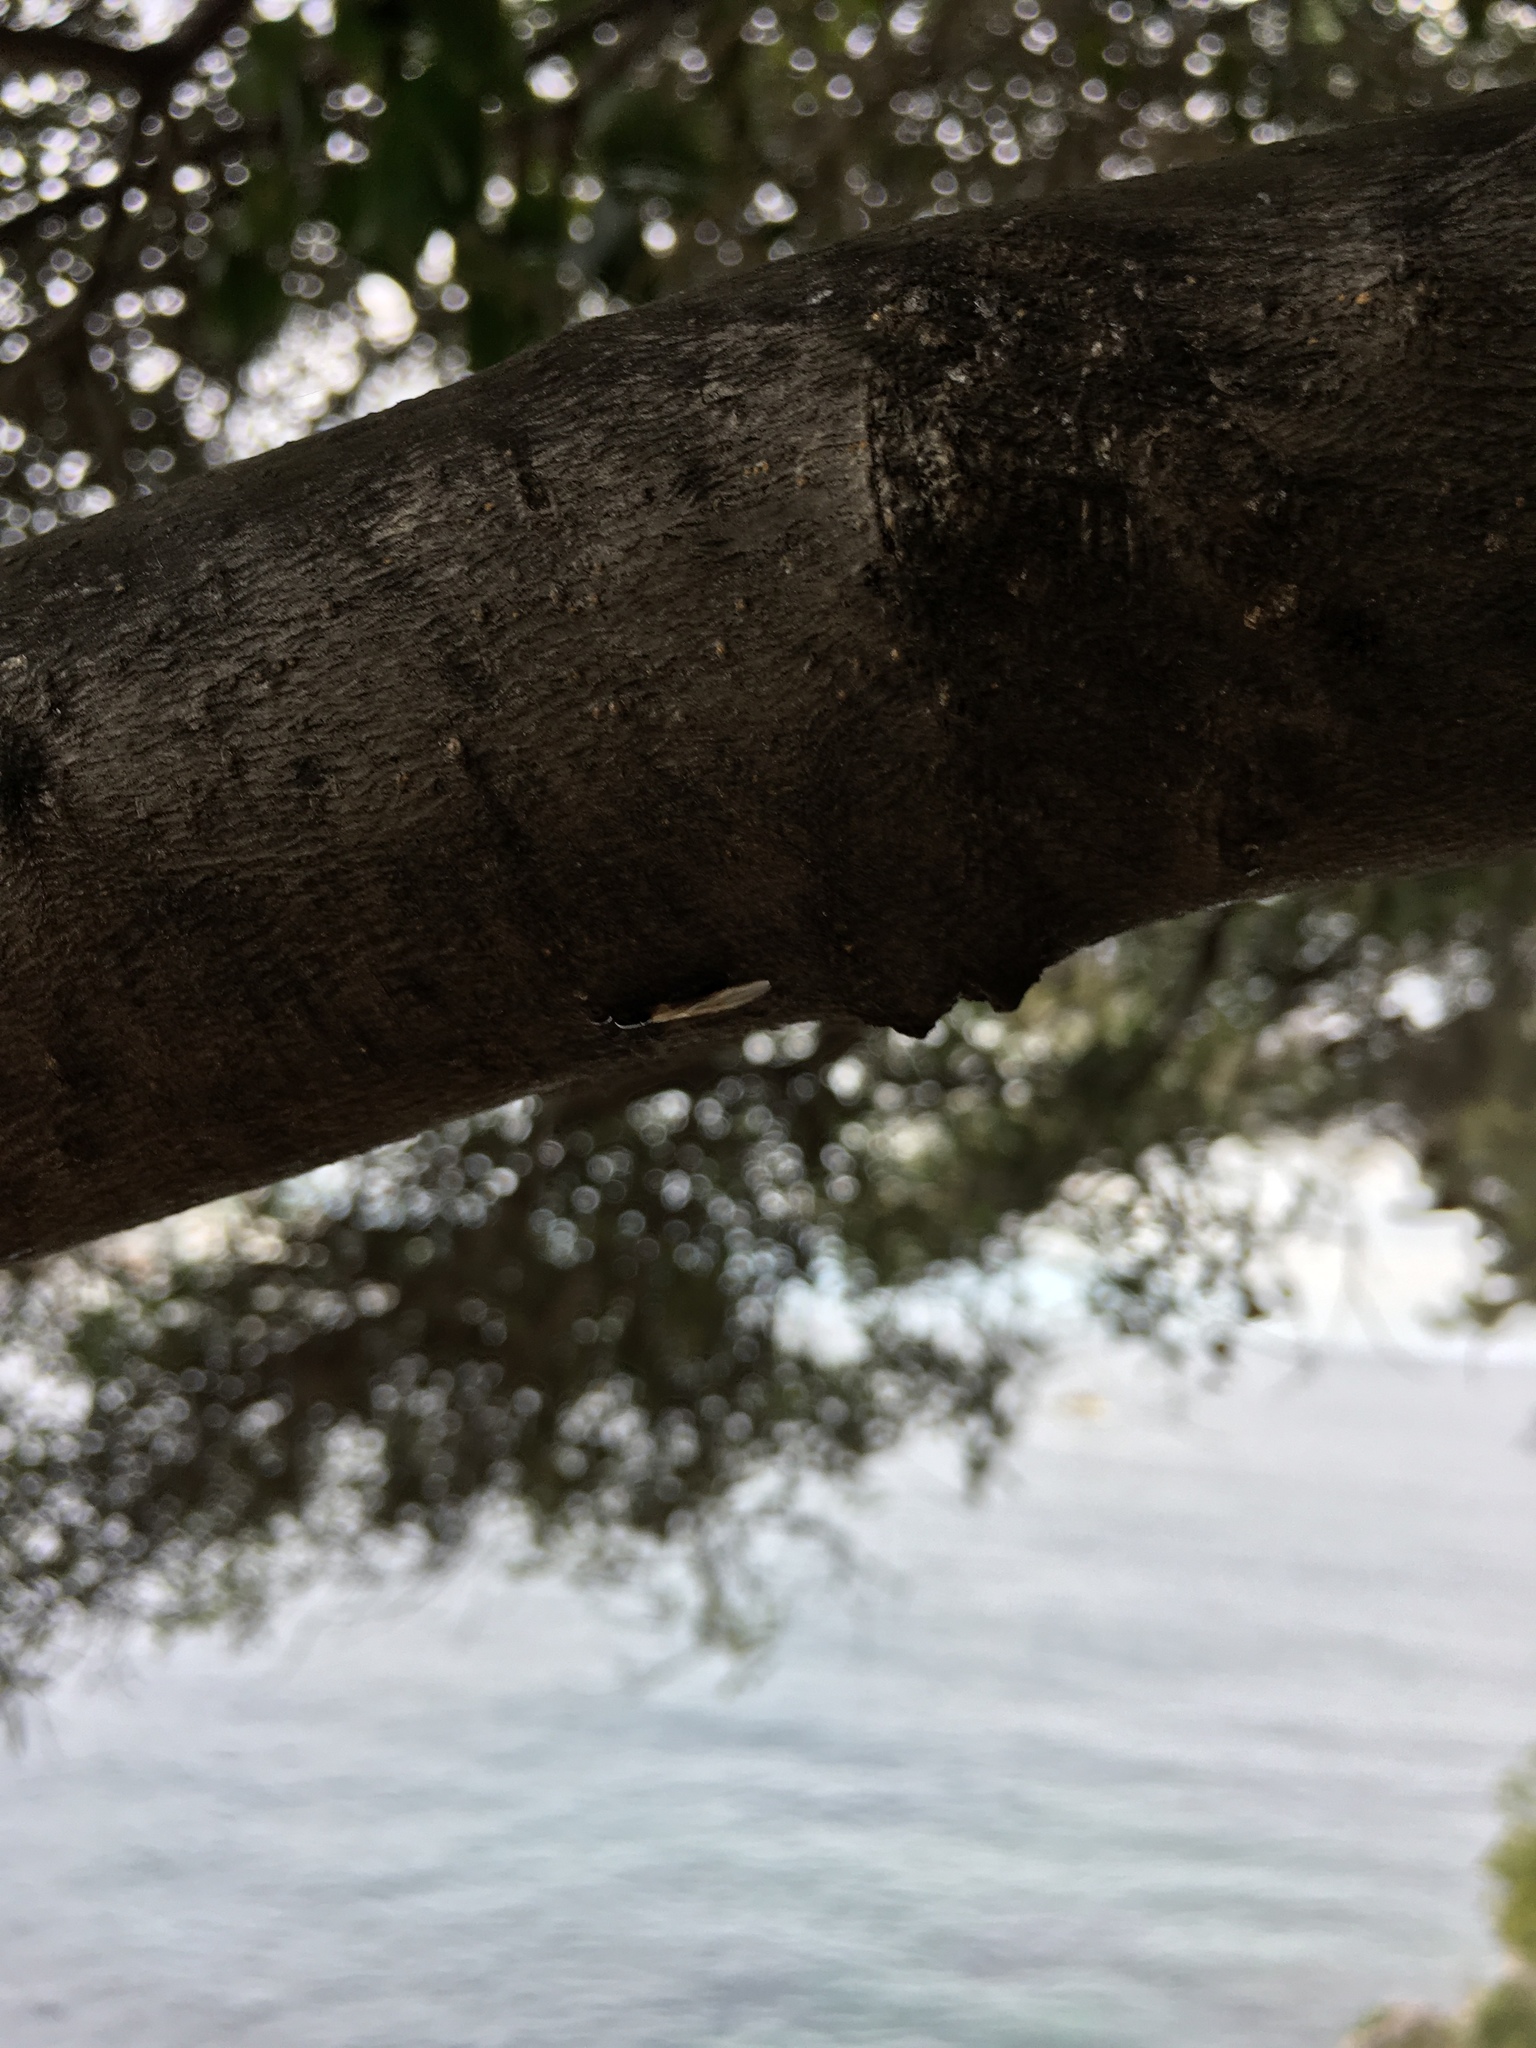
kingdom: Animalia
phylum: Arthropoda
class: Insecta
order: Hymenoptera
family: Formicidae
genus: Camponotus
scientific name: Camponotus lateralis
